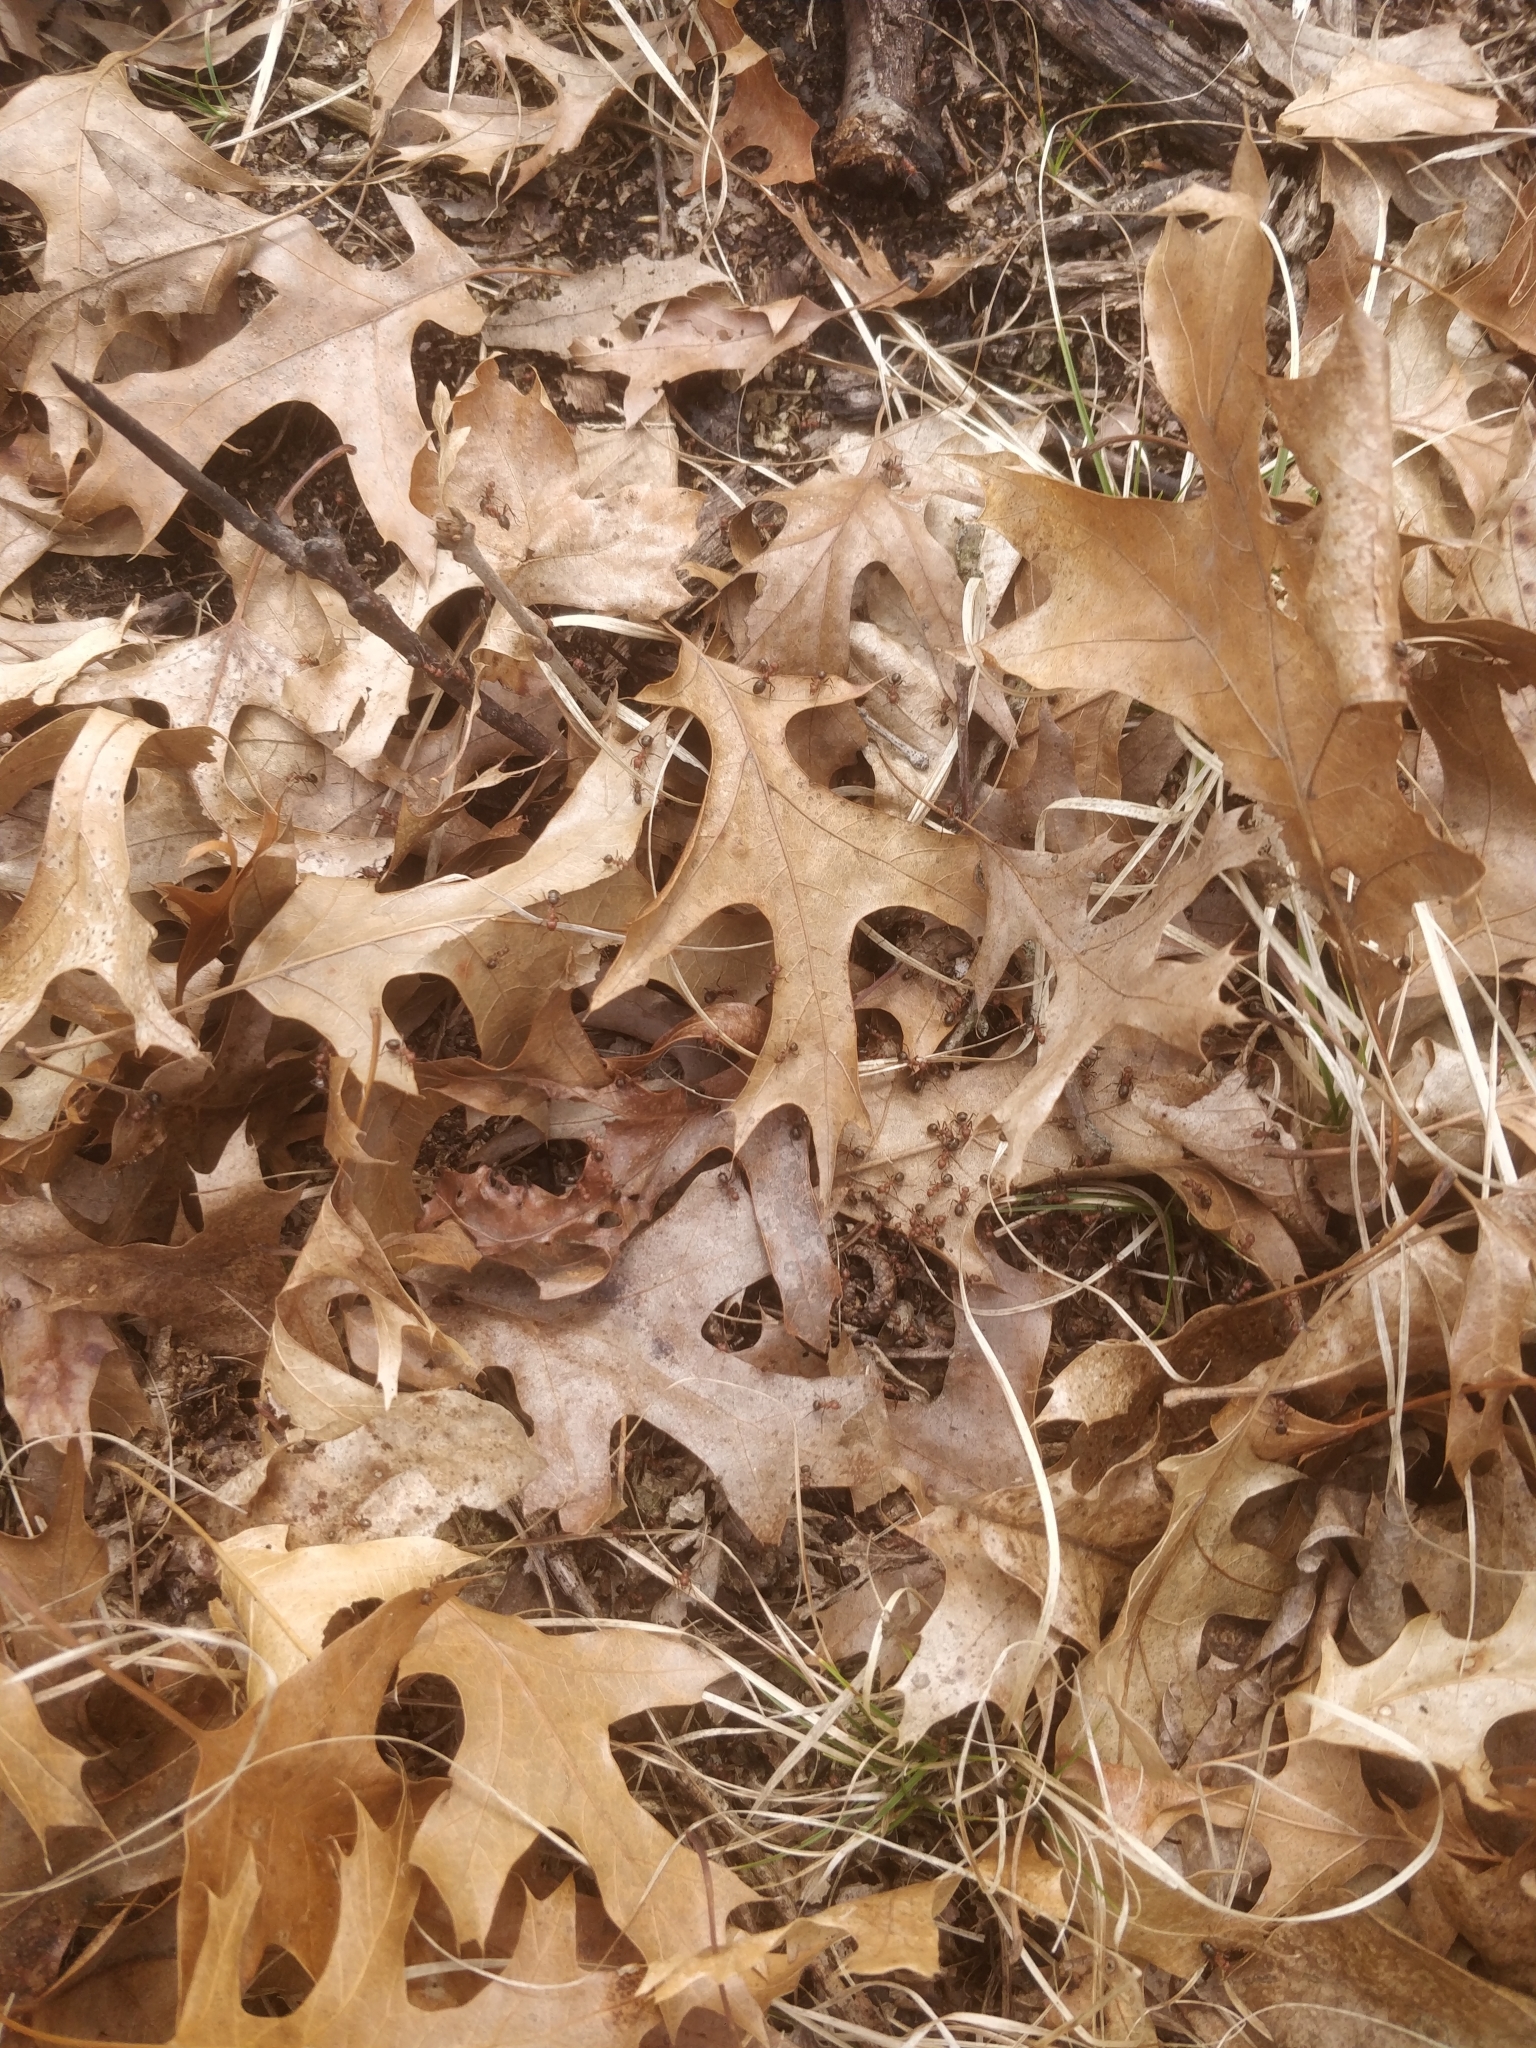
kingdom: Animalia
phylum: Arthropoda
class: Insecta
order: Hymenoptera
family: Formicidae
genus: Formica
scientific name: Formica obscuriventris
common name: Northern red wood ant
